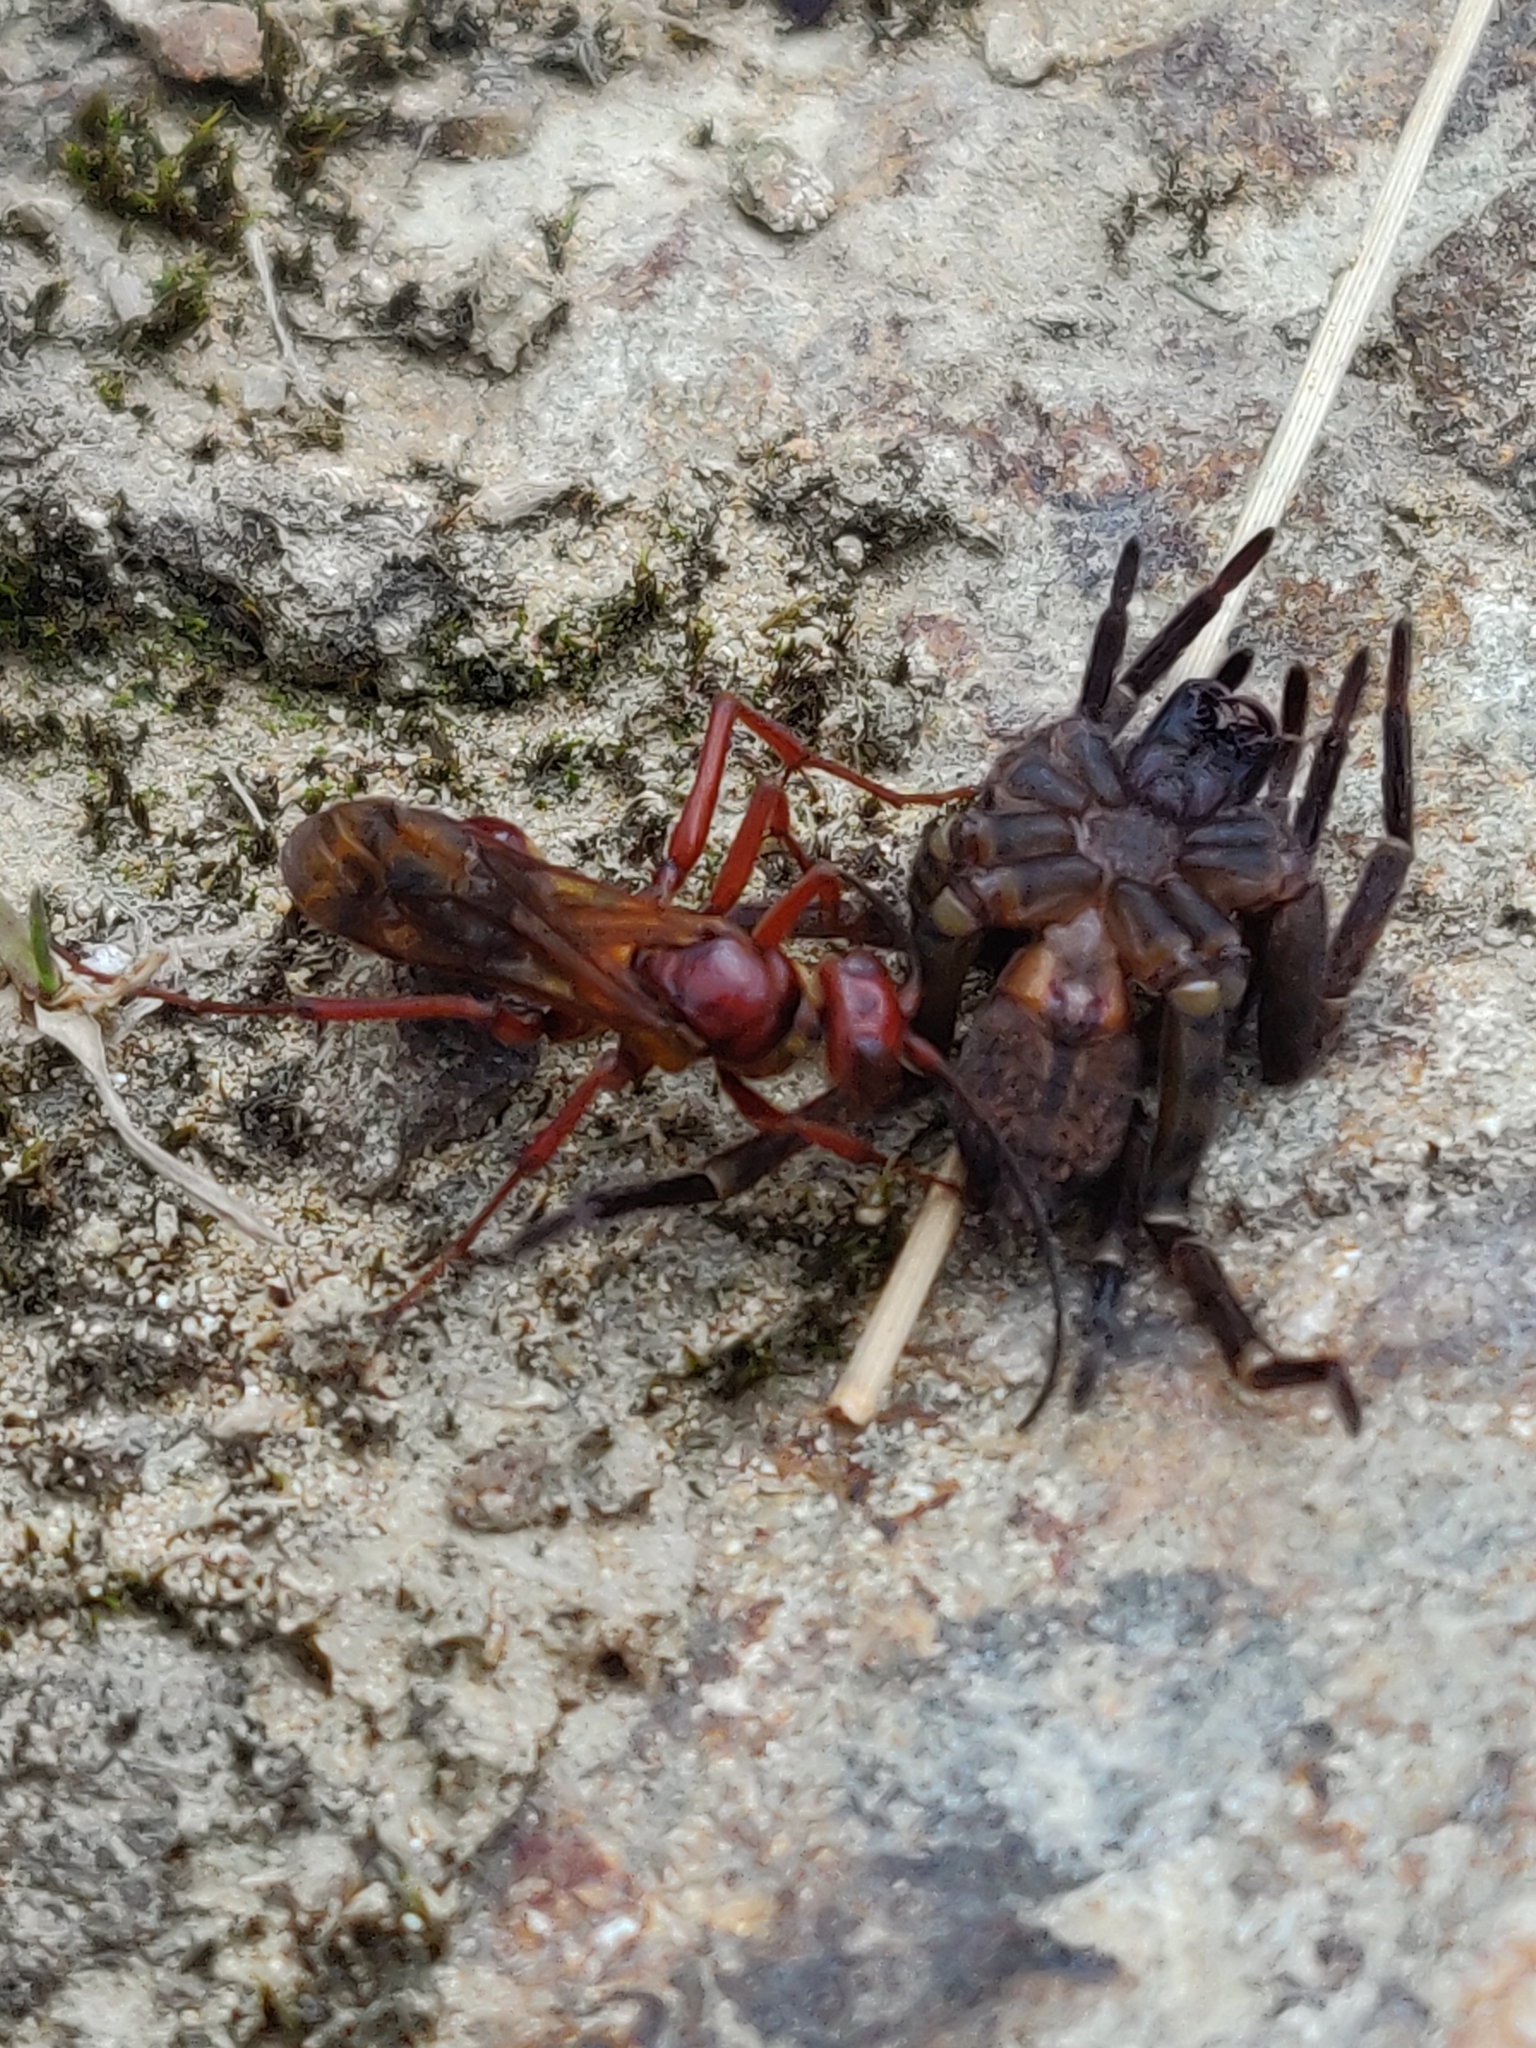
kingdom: Animalia
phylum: Arthropoda
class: Insecta
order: Hymenoptera
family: Pompilidae
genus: Sphictostethus
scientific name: Sphictostethus nitidus
